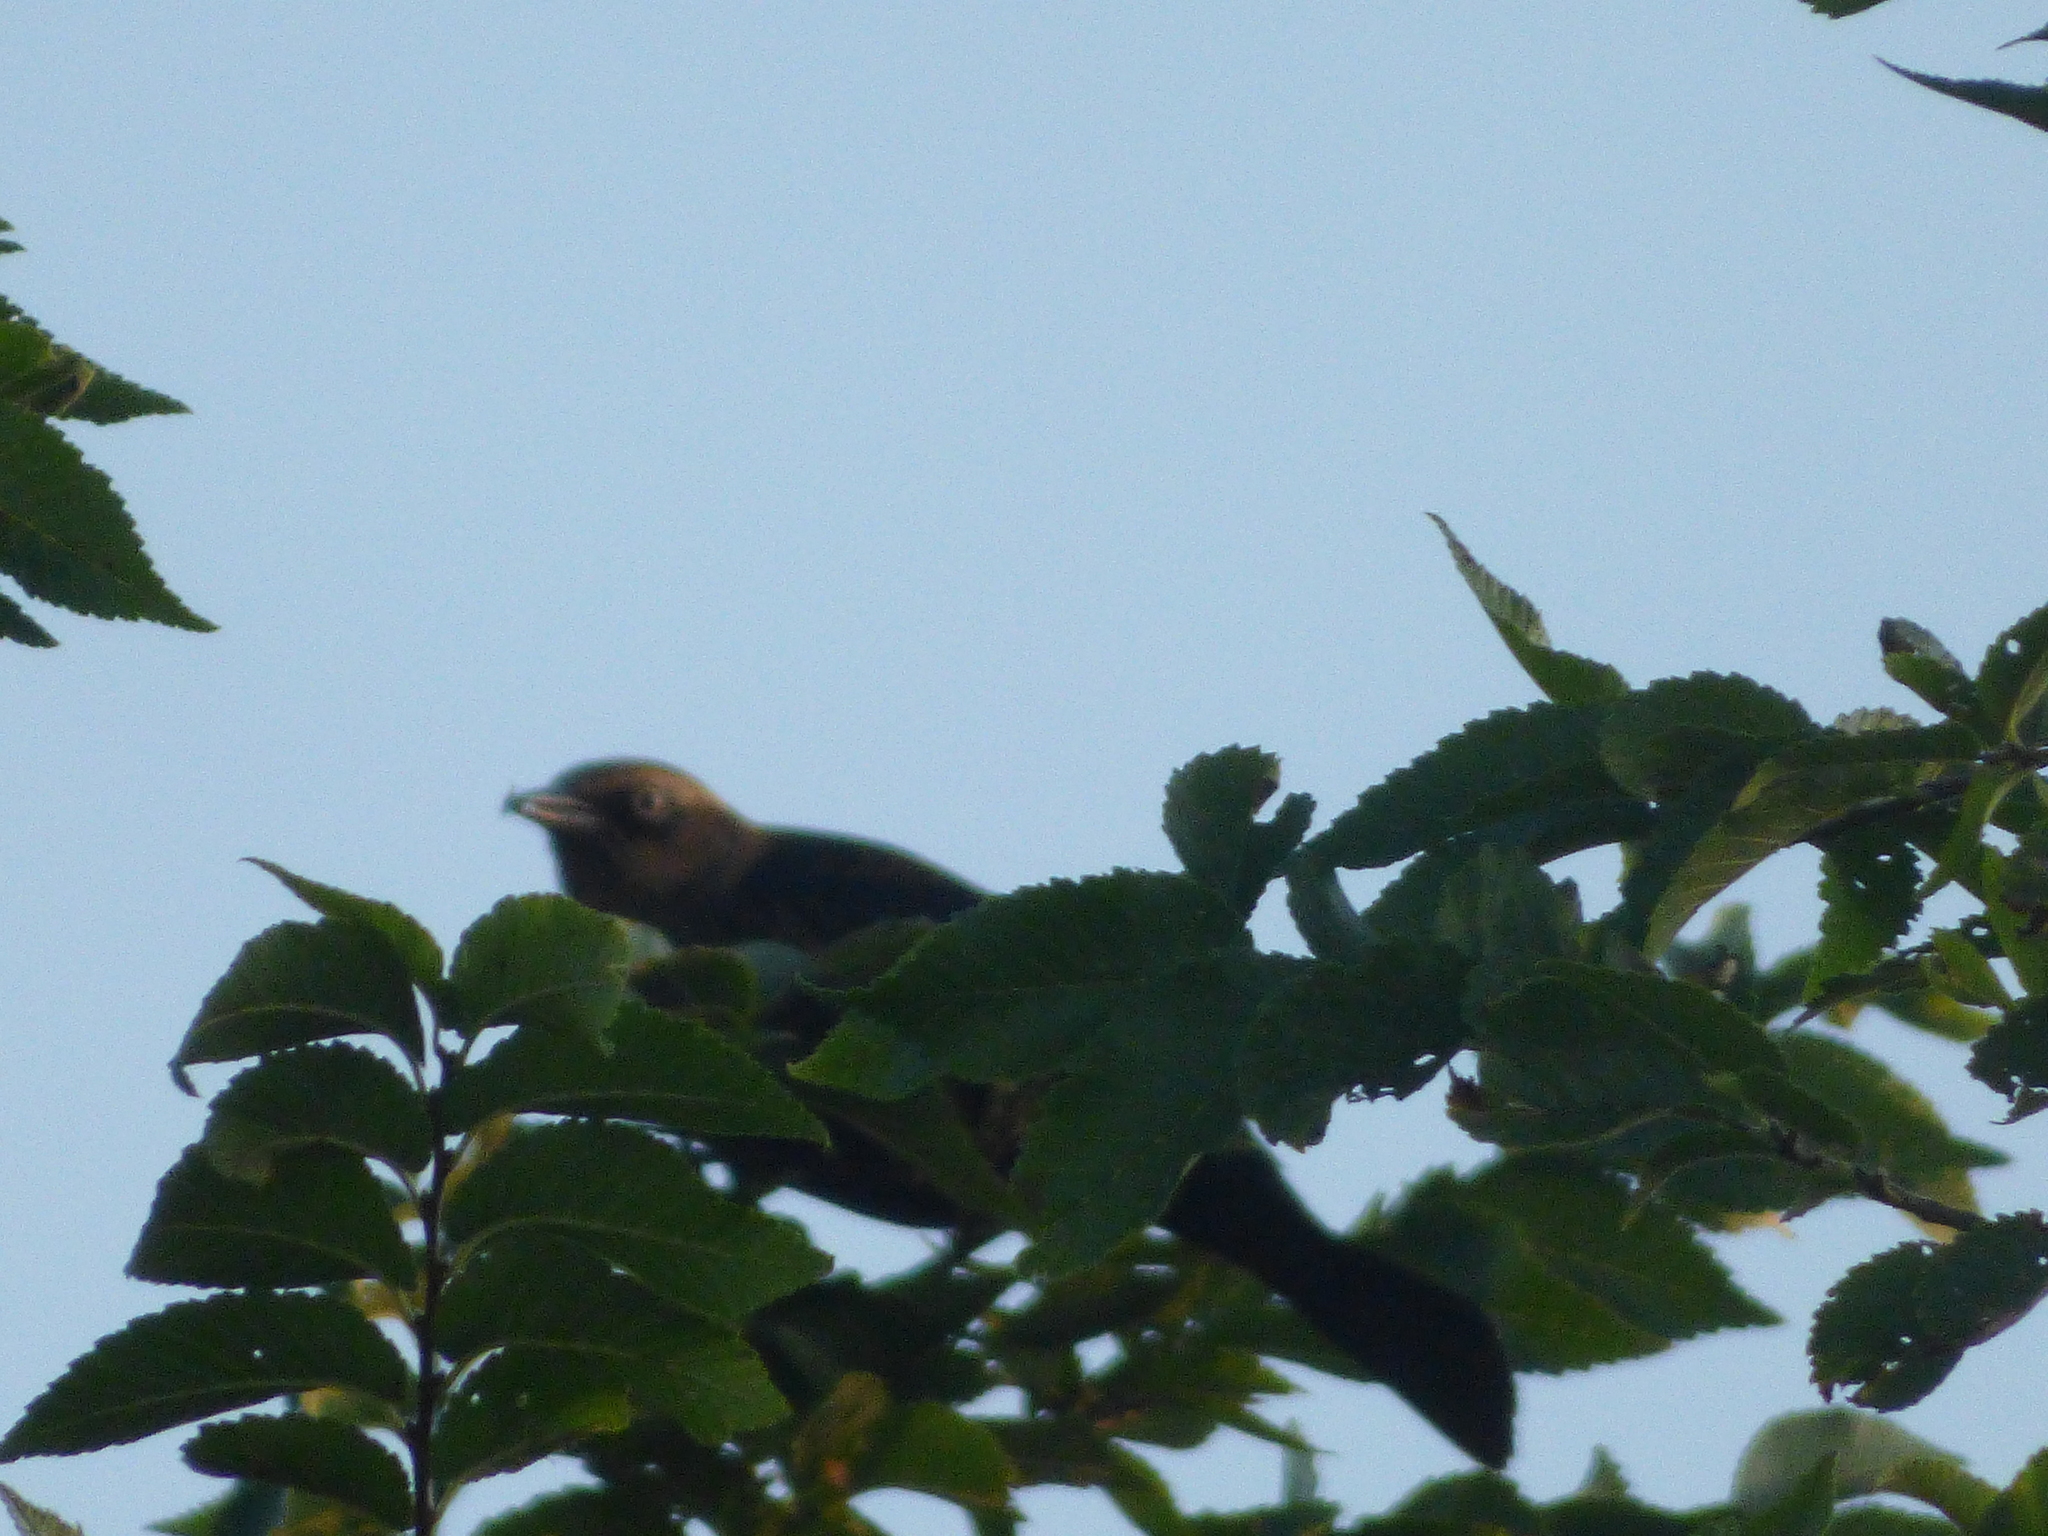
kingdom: Animalia
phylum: Chordata
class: Aves
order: Passeriformes
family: Icteridae
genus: Euphagus
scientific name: Euphagus carolinus
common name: Rusty blackbird
